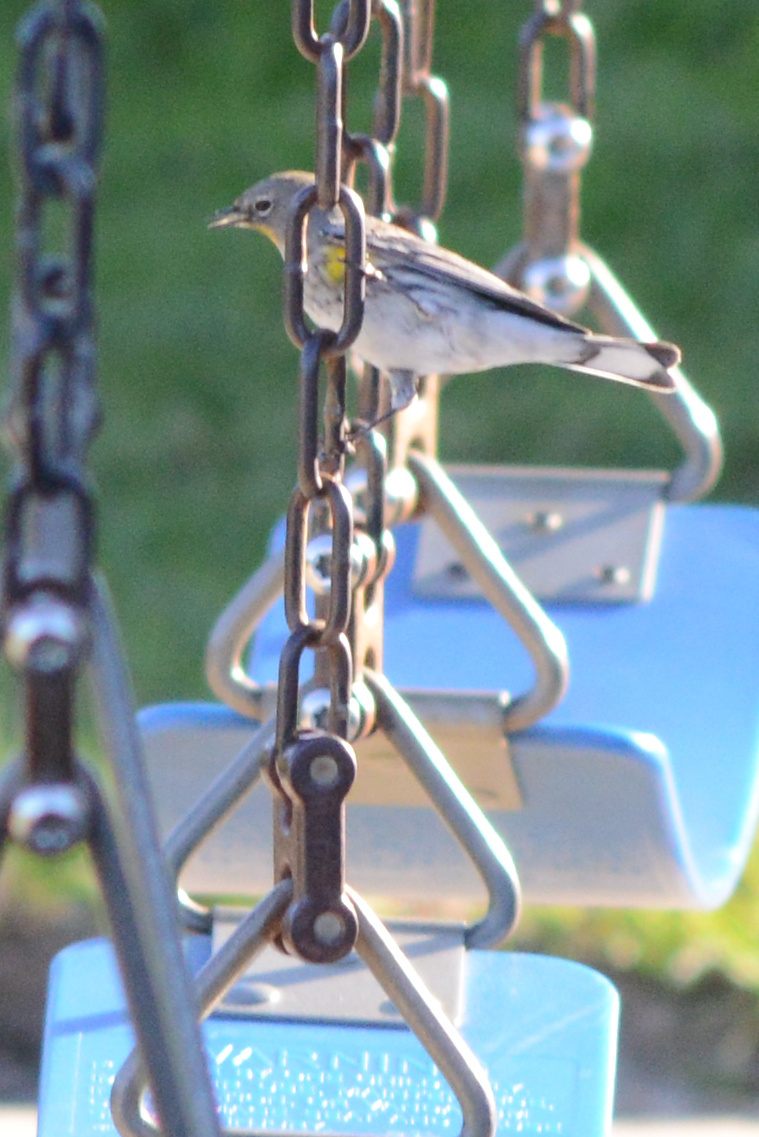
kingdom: Animalia
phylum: Chordata
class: Aves
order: Passeriformes
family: Parulidae
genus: Setophaga
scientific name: Setophaga auduboni
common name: Audubon's warbler
